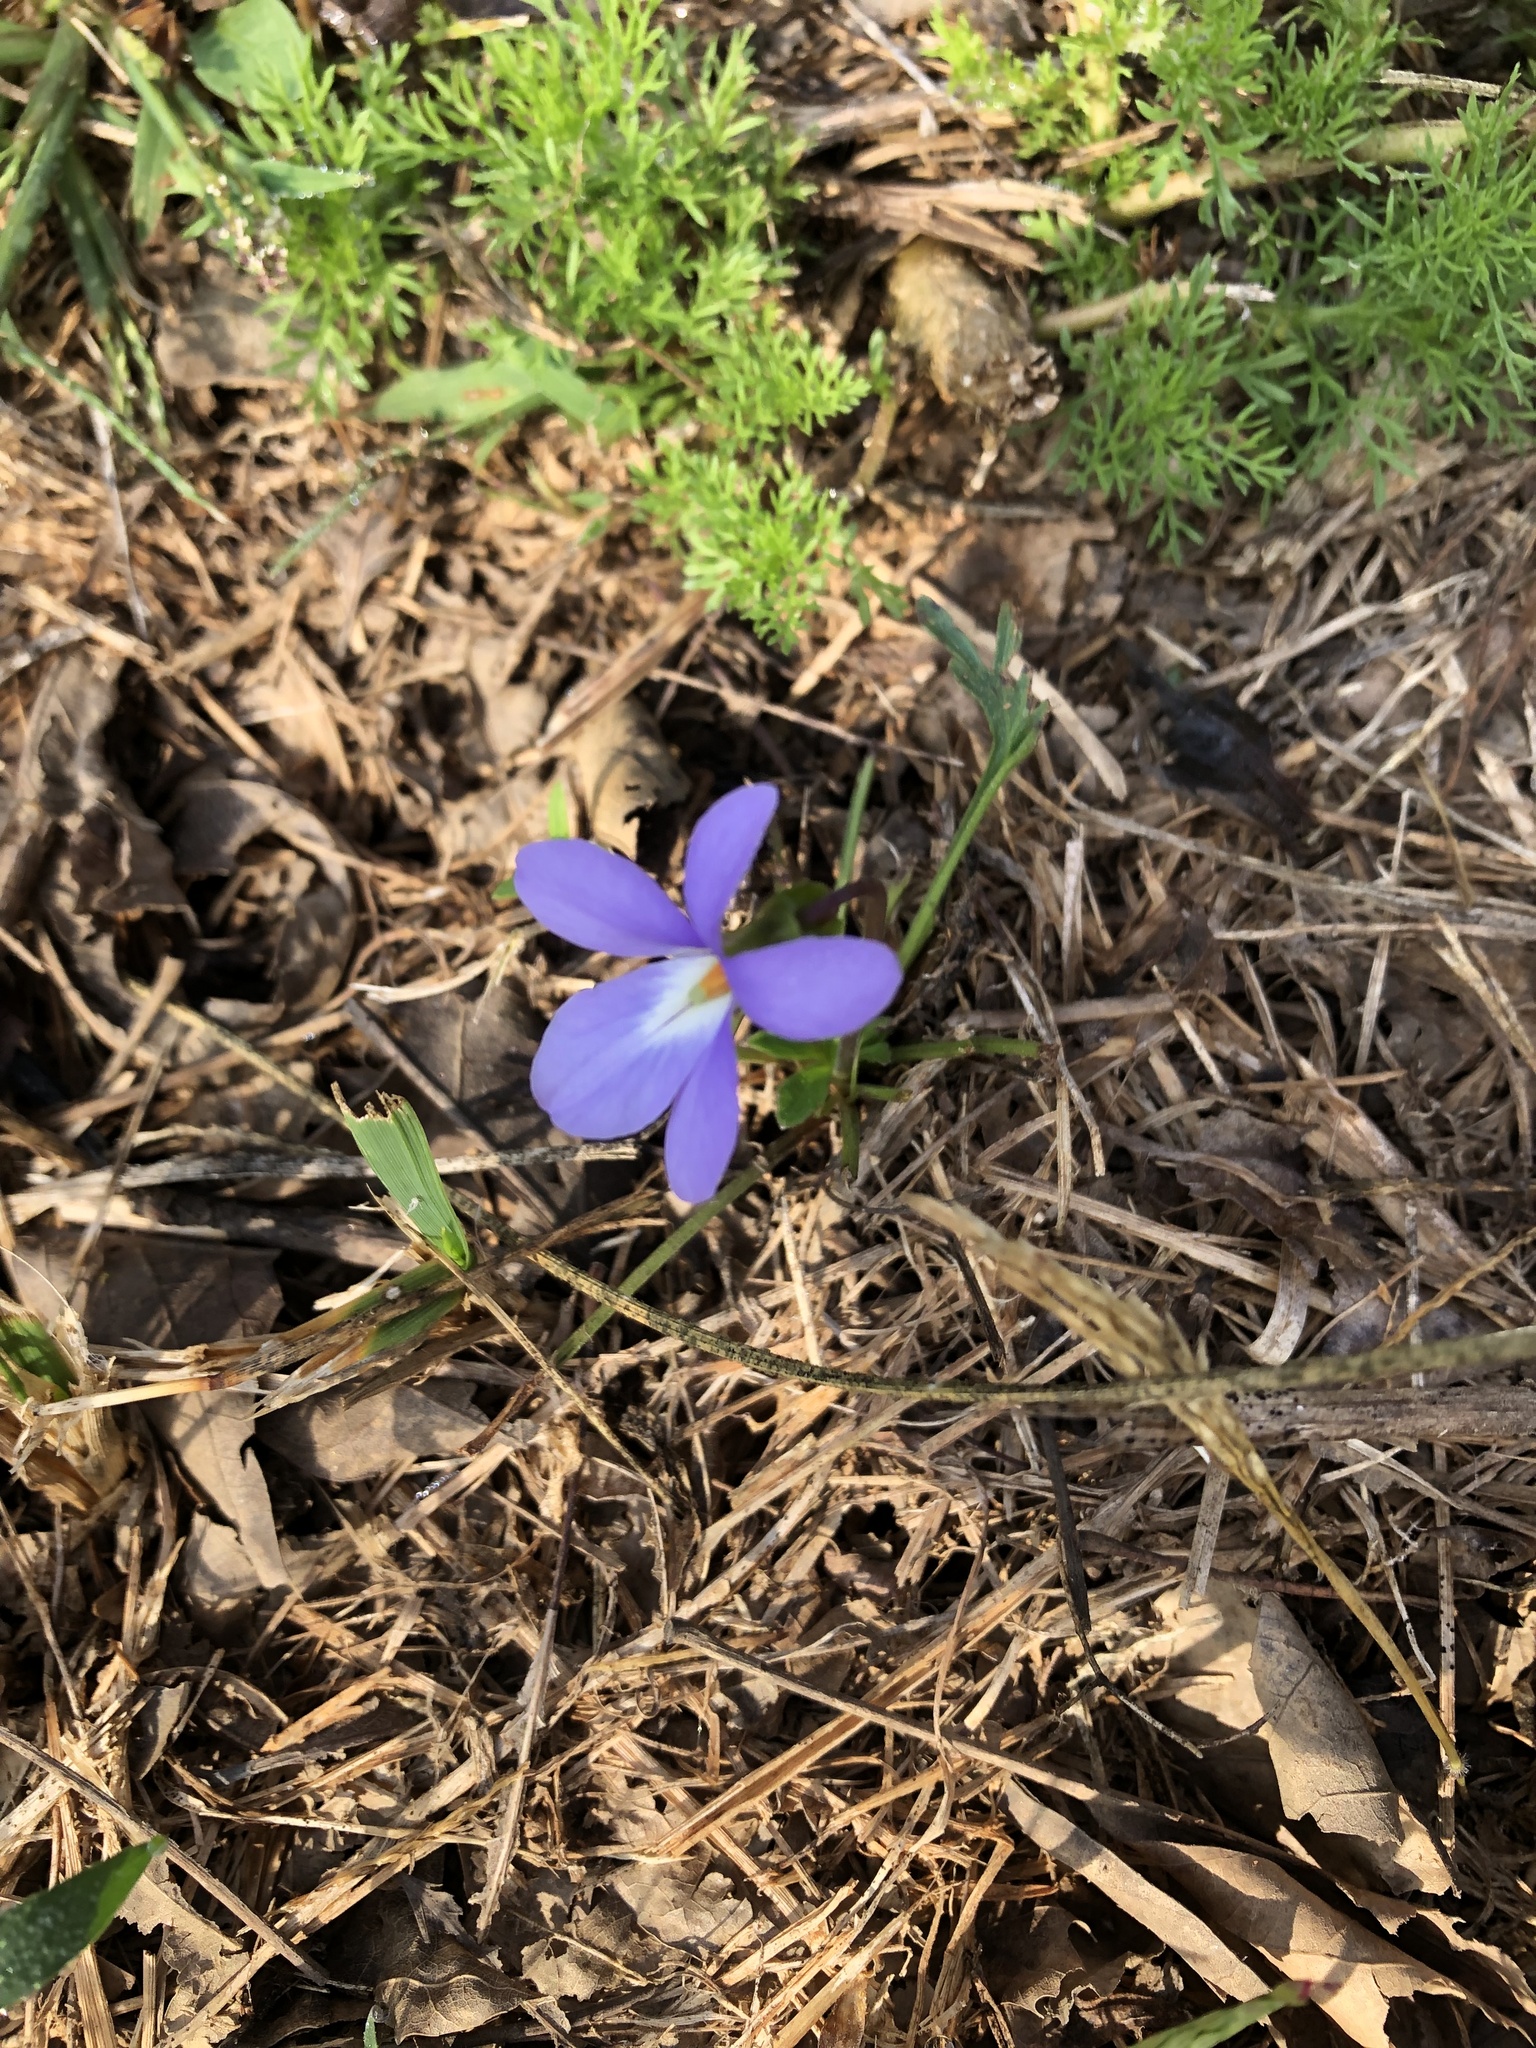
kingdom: Plantae
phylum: Tracheophyta
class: Magnoliopsida
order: Malpighiales
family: Violaceae
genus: Viola
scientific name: Viola pedata
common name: Pansy violet
